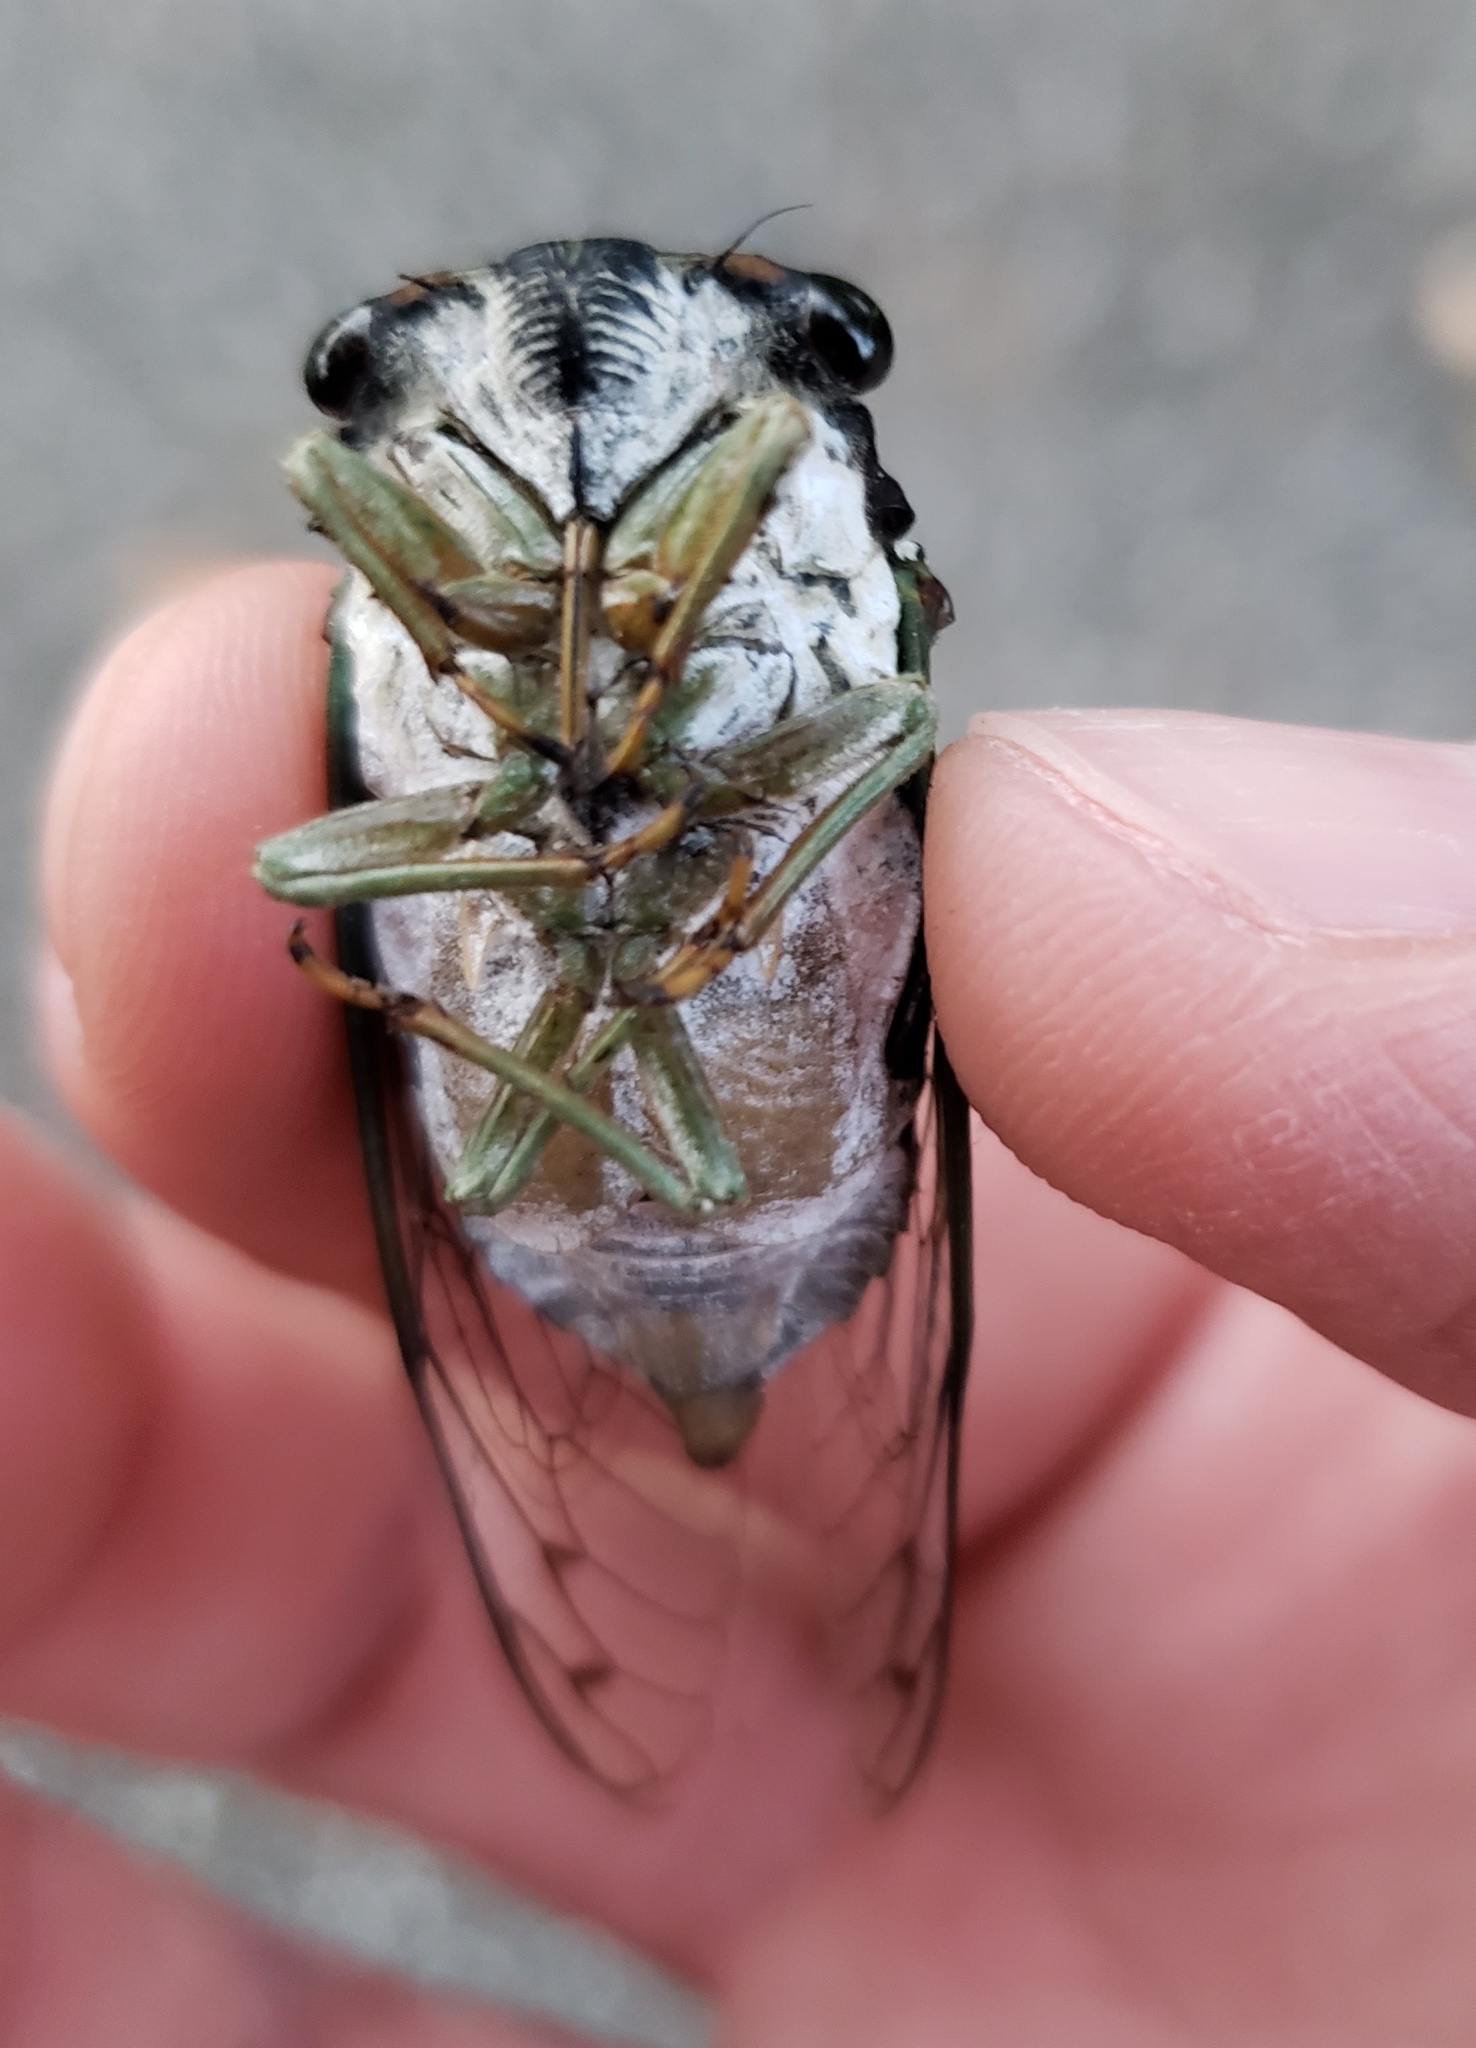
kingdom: Animalia
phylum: Arthropoda
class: Insecta
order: Hemiptera
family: Cicadidae
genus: Neotibicen
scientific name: Neotibicen tibicen
